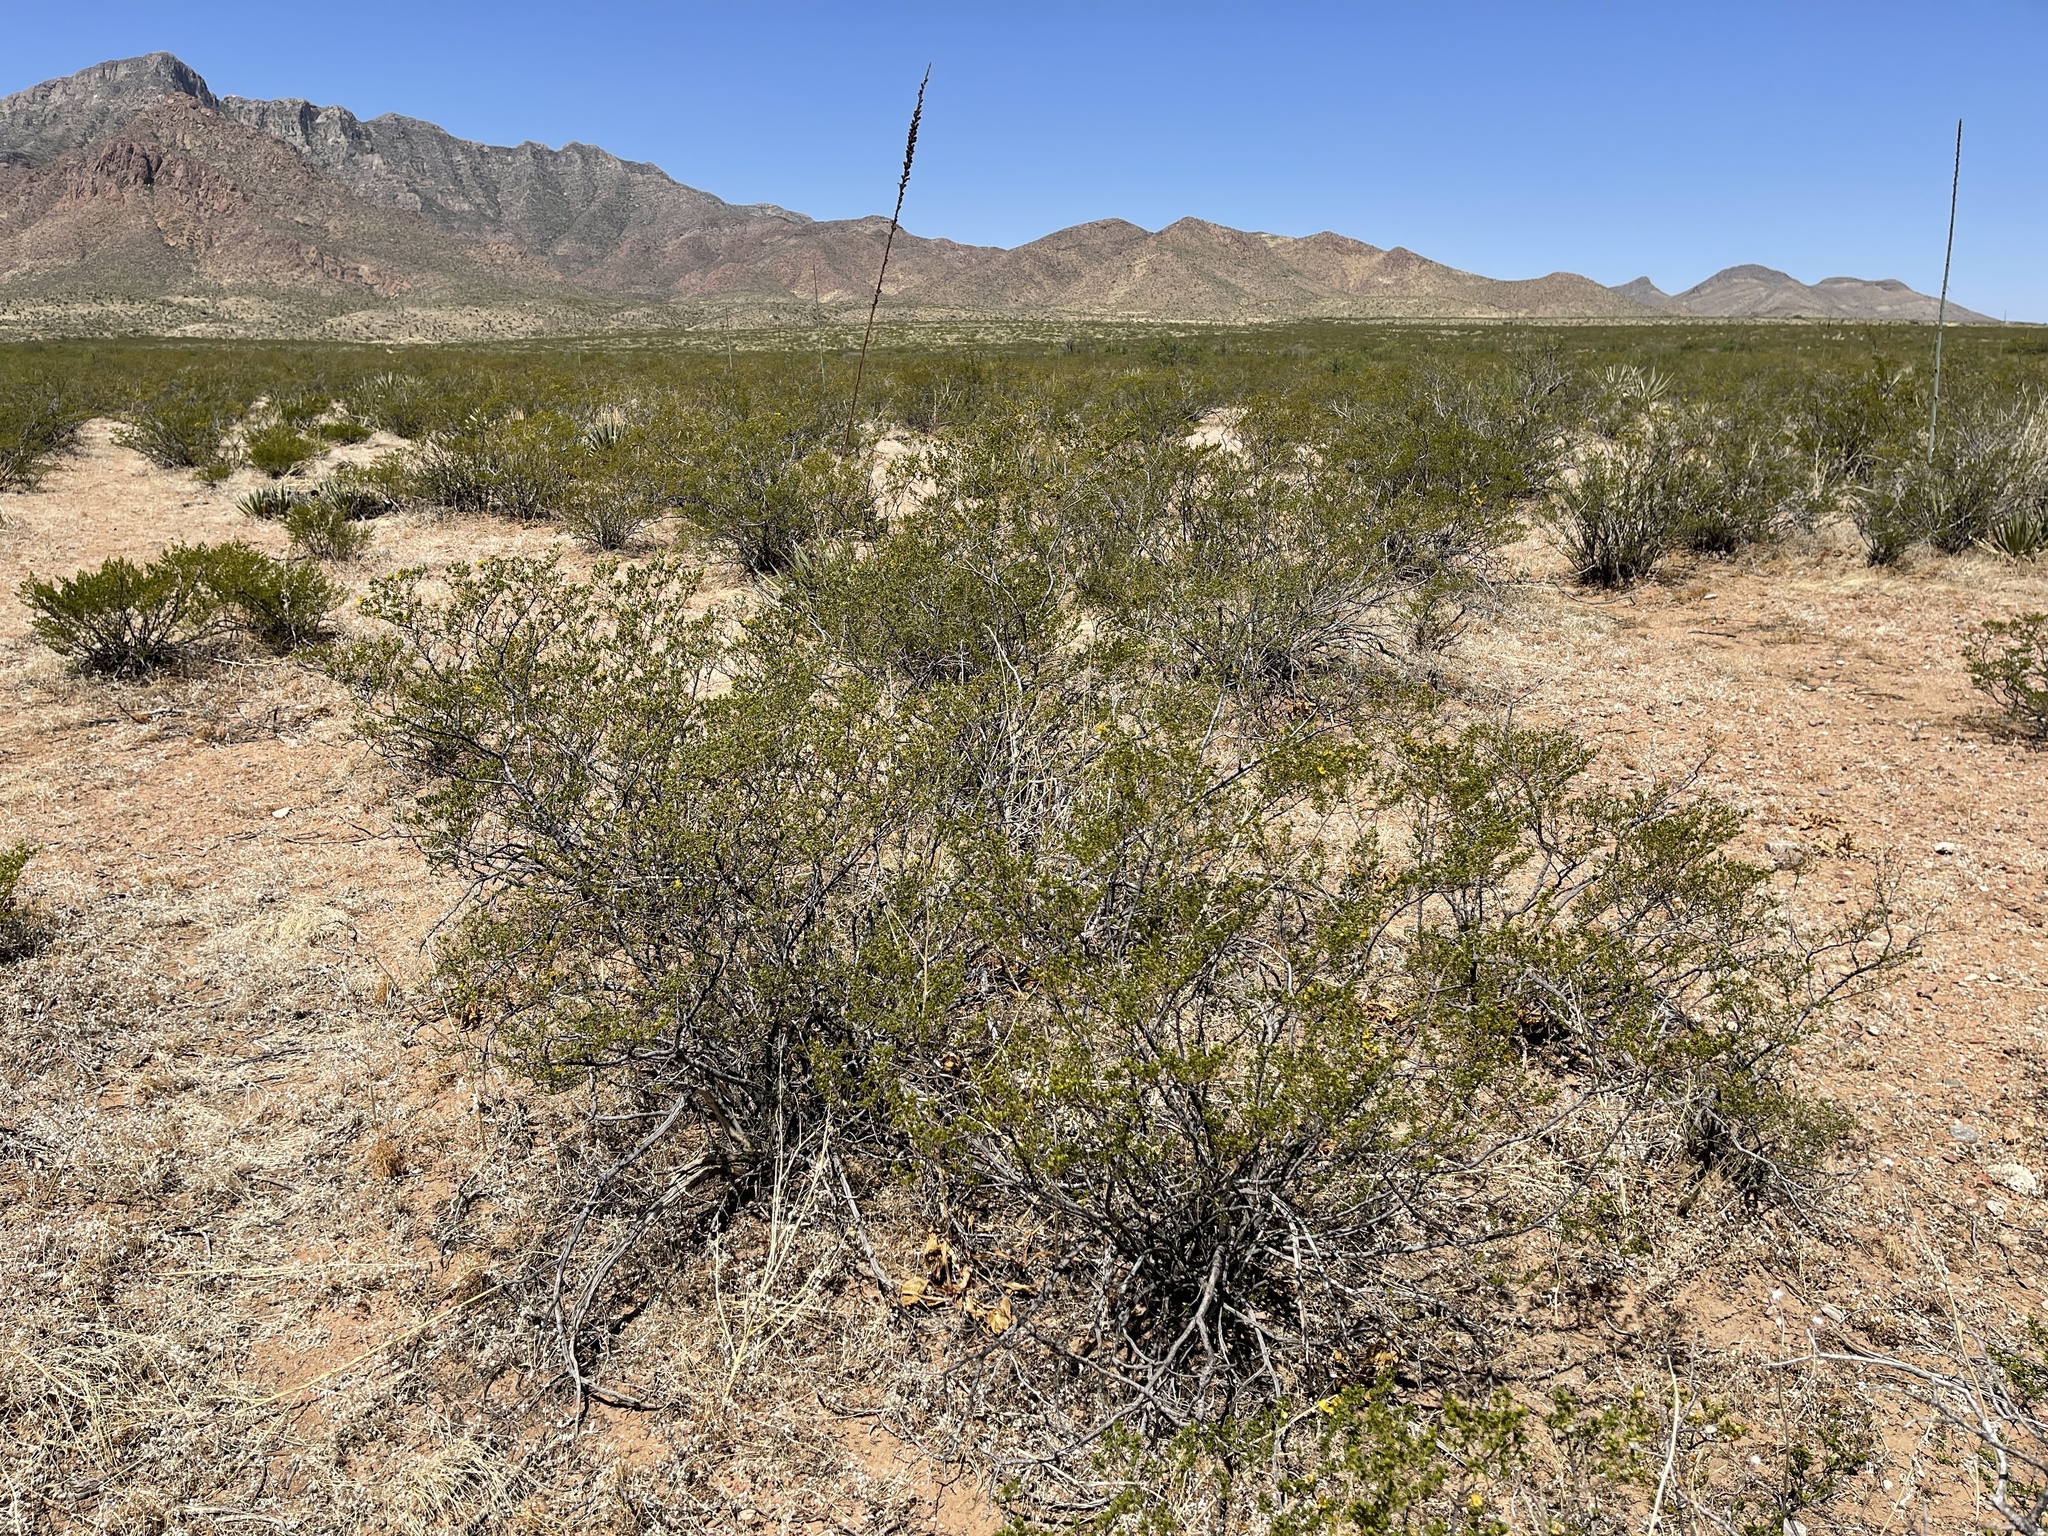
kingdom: Plantae
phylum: Tracheophyta
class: Magnoliopsida
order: Zygophyllales
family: Zygophyllaceae
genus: Larrea
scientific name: Larrea tridentata
